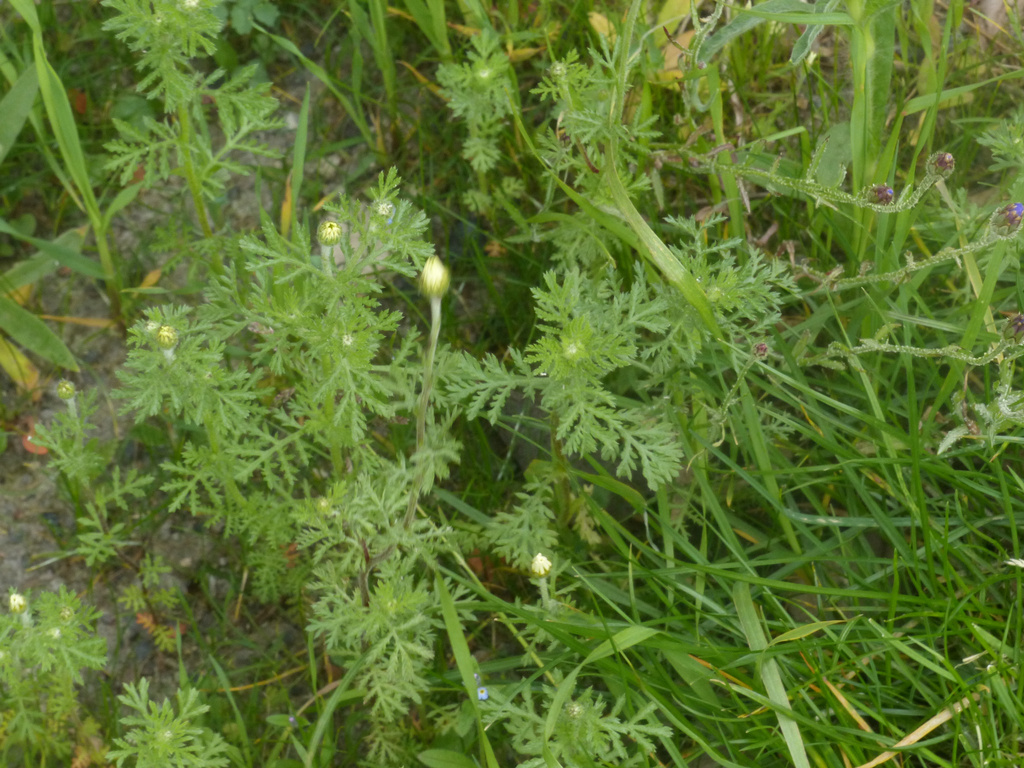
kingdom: Plantae
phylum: Tracheophyta
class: Magnoliopsida
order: Asterales
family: Asteraceae
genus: Cota
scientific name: Cota austriaca
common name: Austrian chamomile
